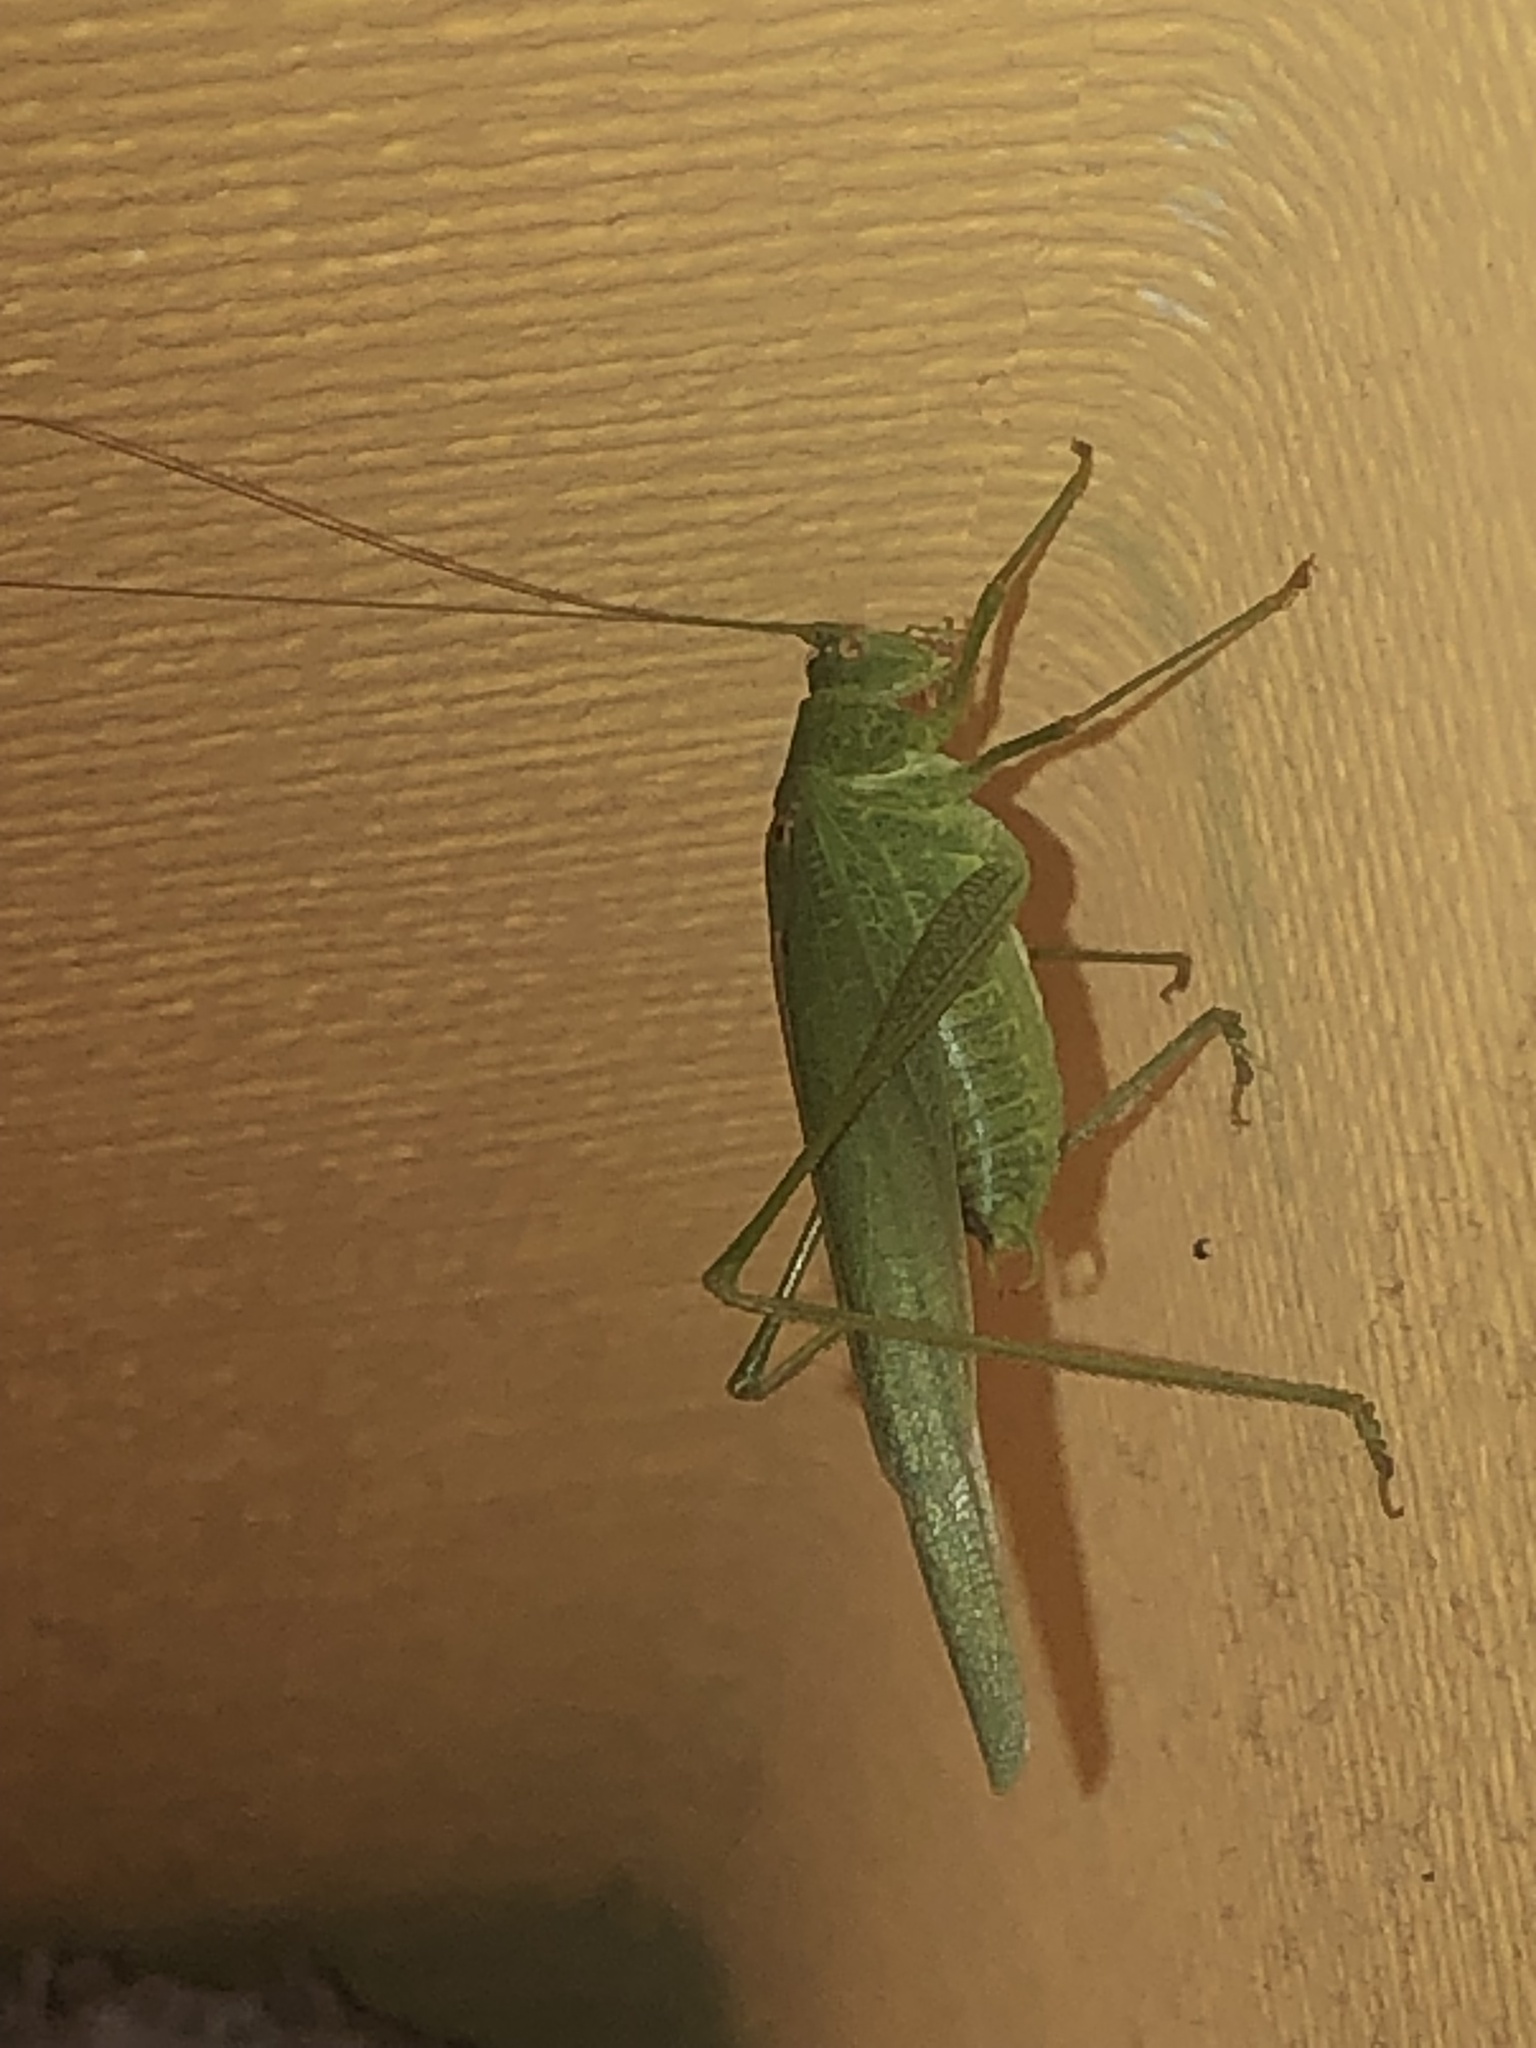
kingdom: Animalia
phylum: Arthropoda
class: Insecta
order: Orthoptera
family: Tettigoniidae
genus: Phaneroptera
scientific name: Phaneroptera nana
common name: Southern sickle bush-cricket
